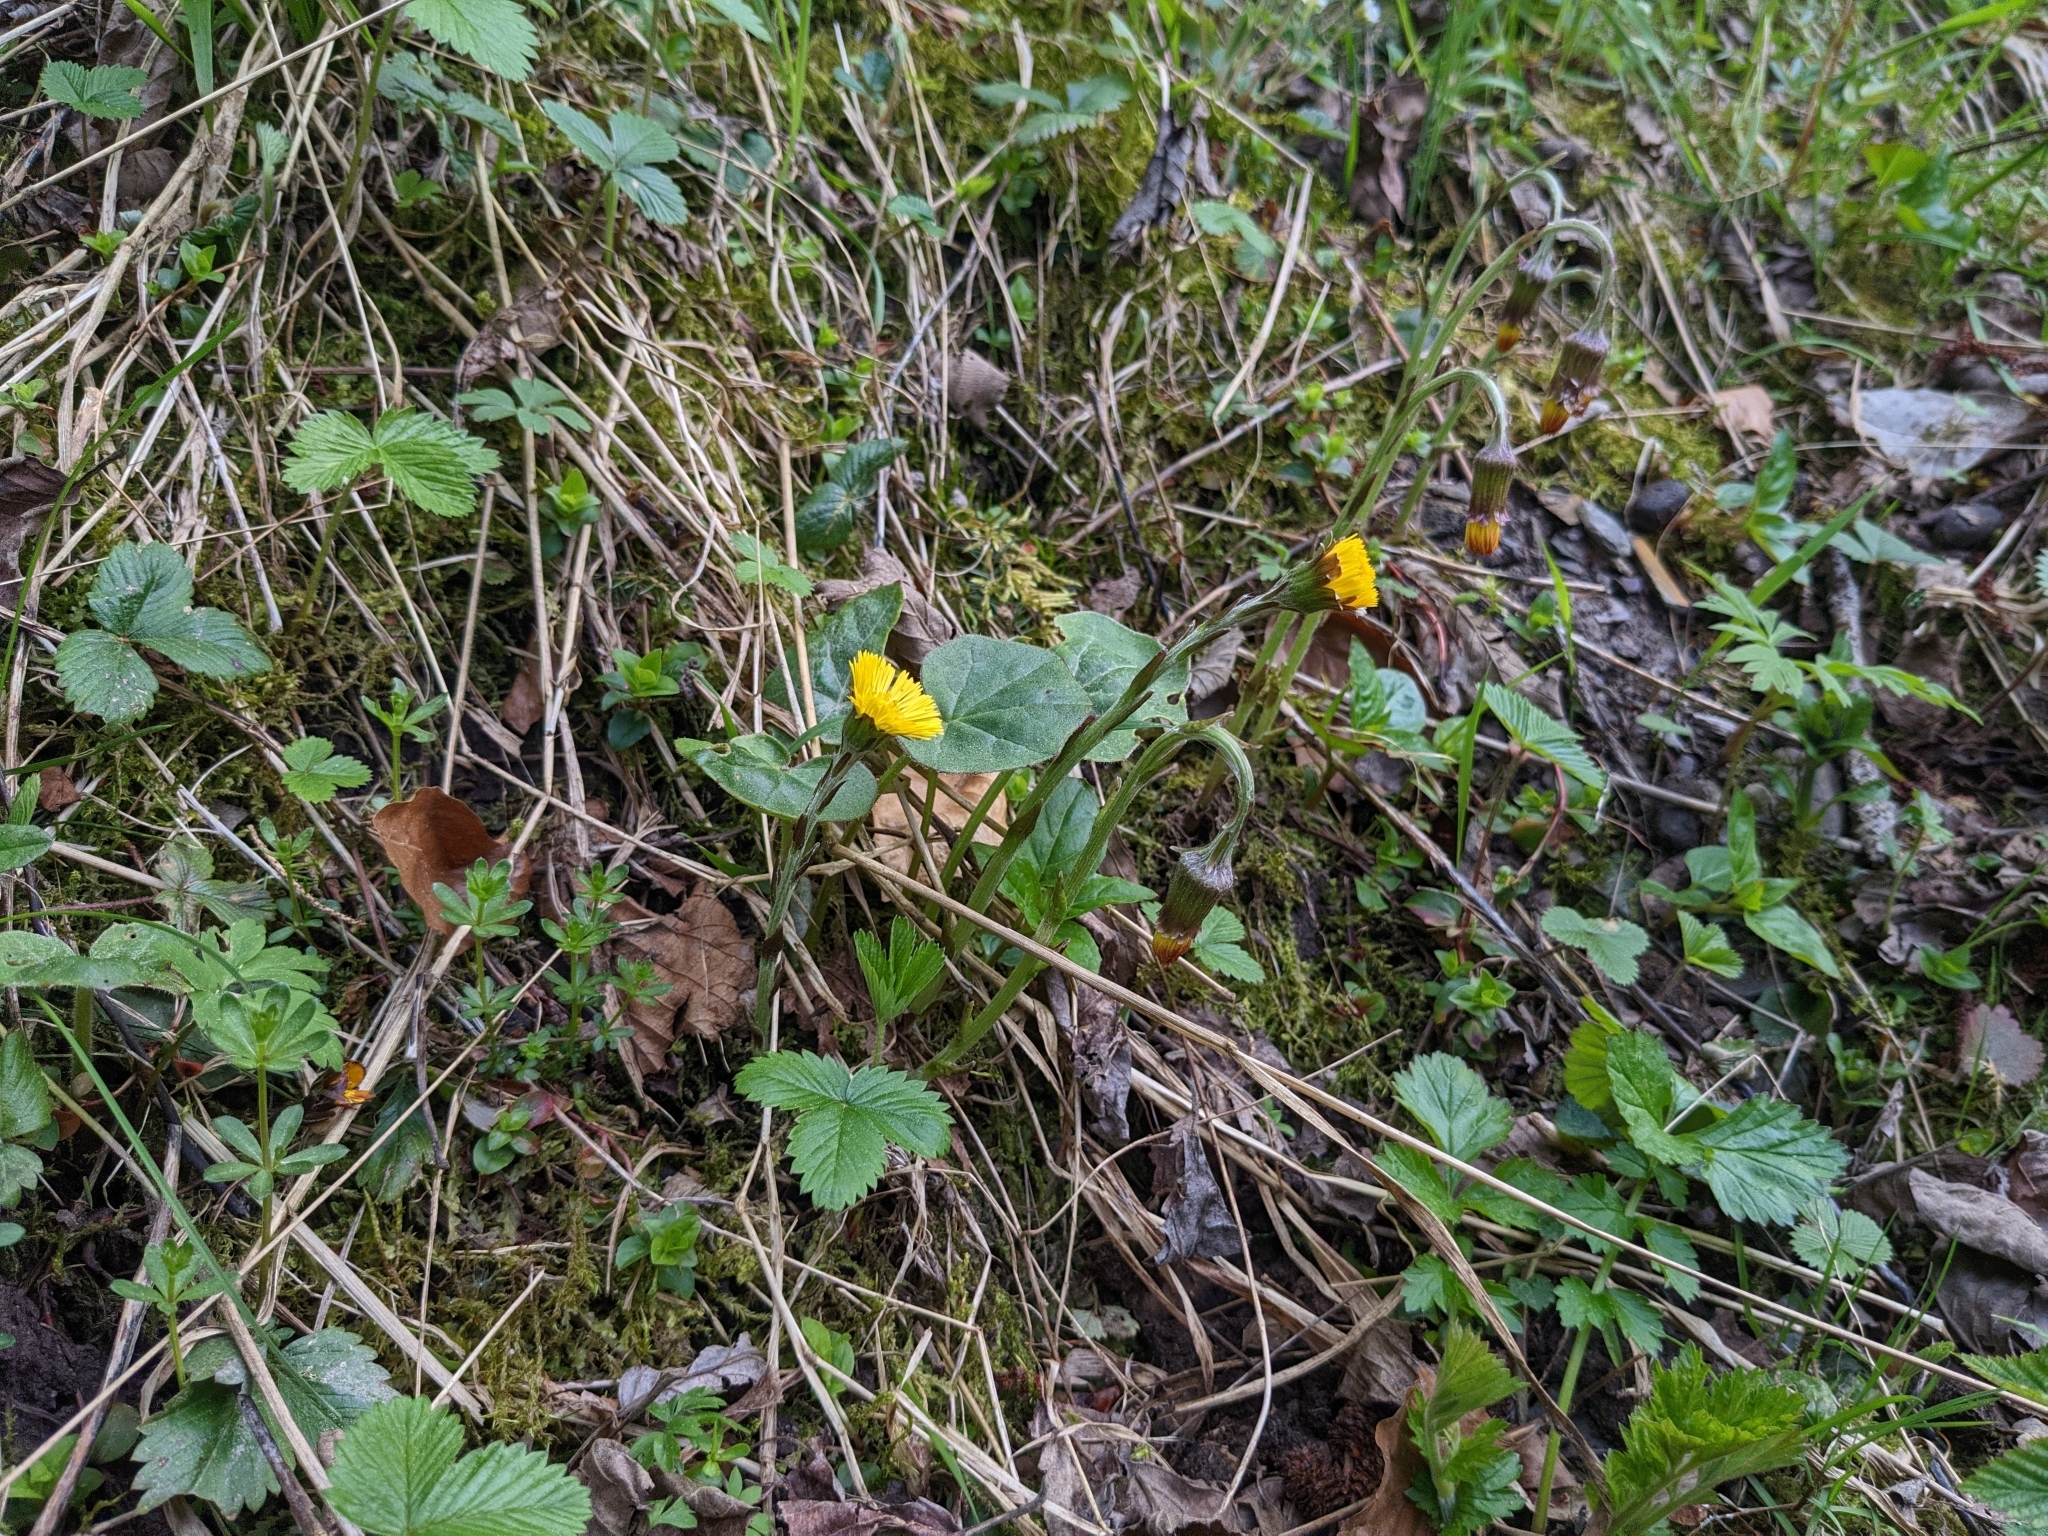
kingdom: Plantae
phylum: Tracheophyta
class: Magnoliopsida
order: Asterales
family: Asteraceae
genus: Tussilago
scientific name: Tussilago farfara
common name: Coltsfoot
